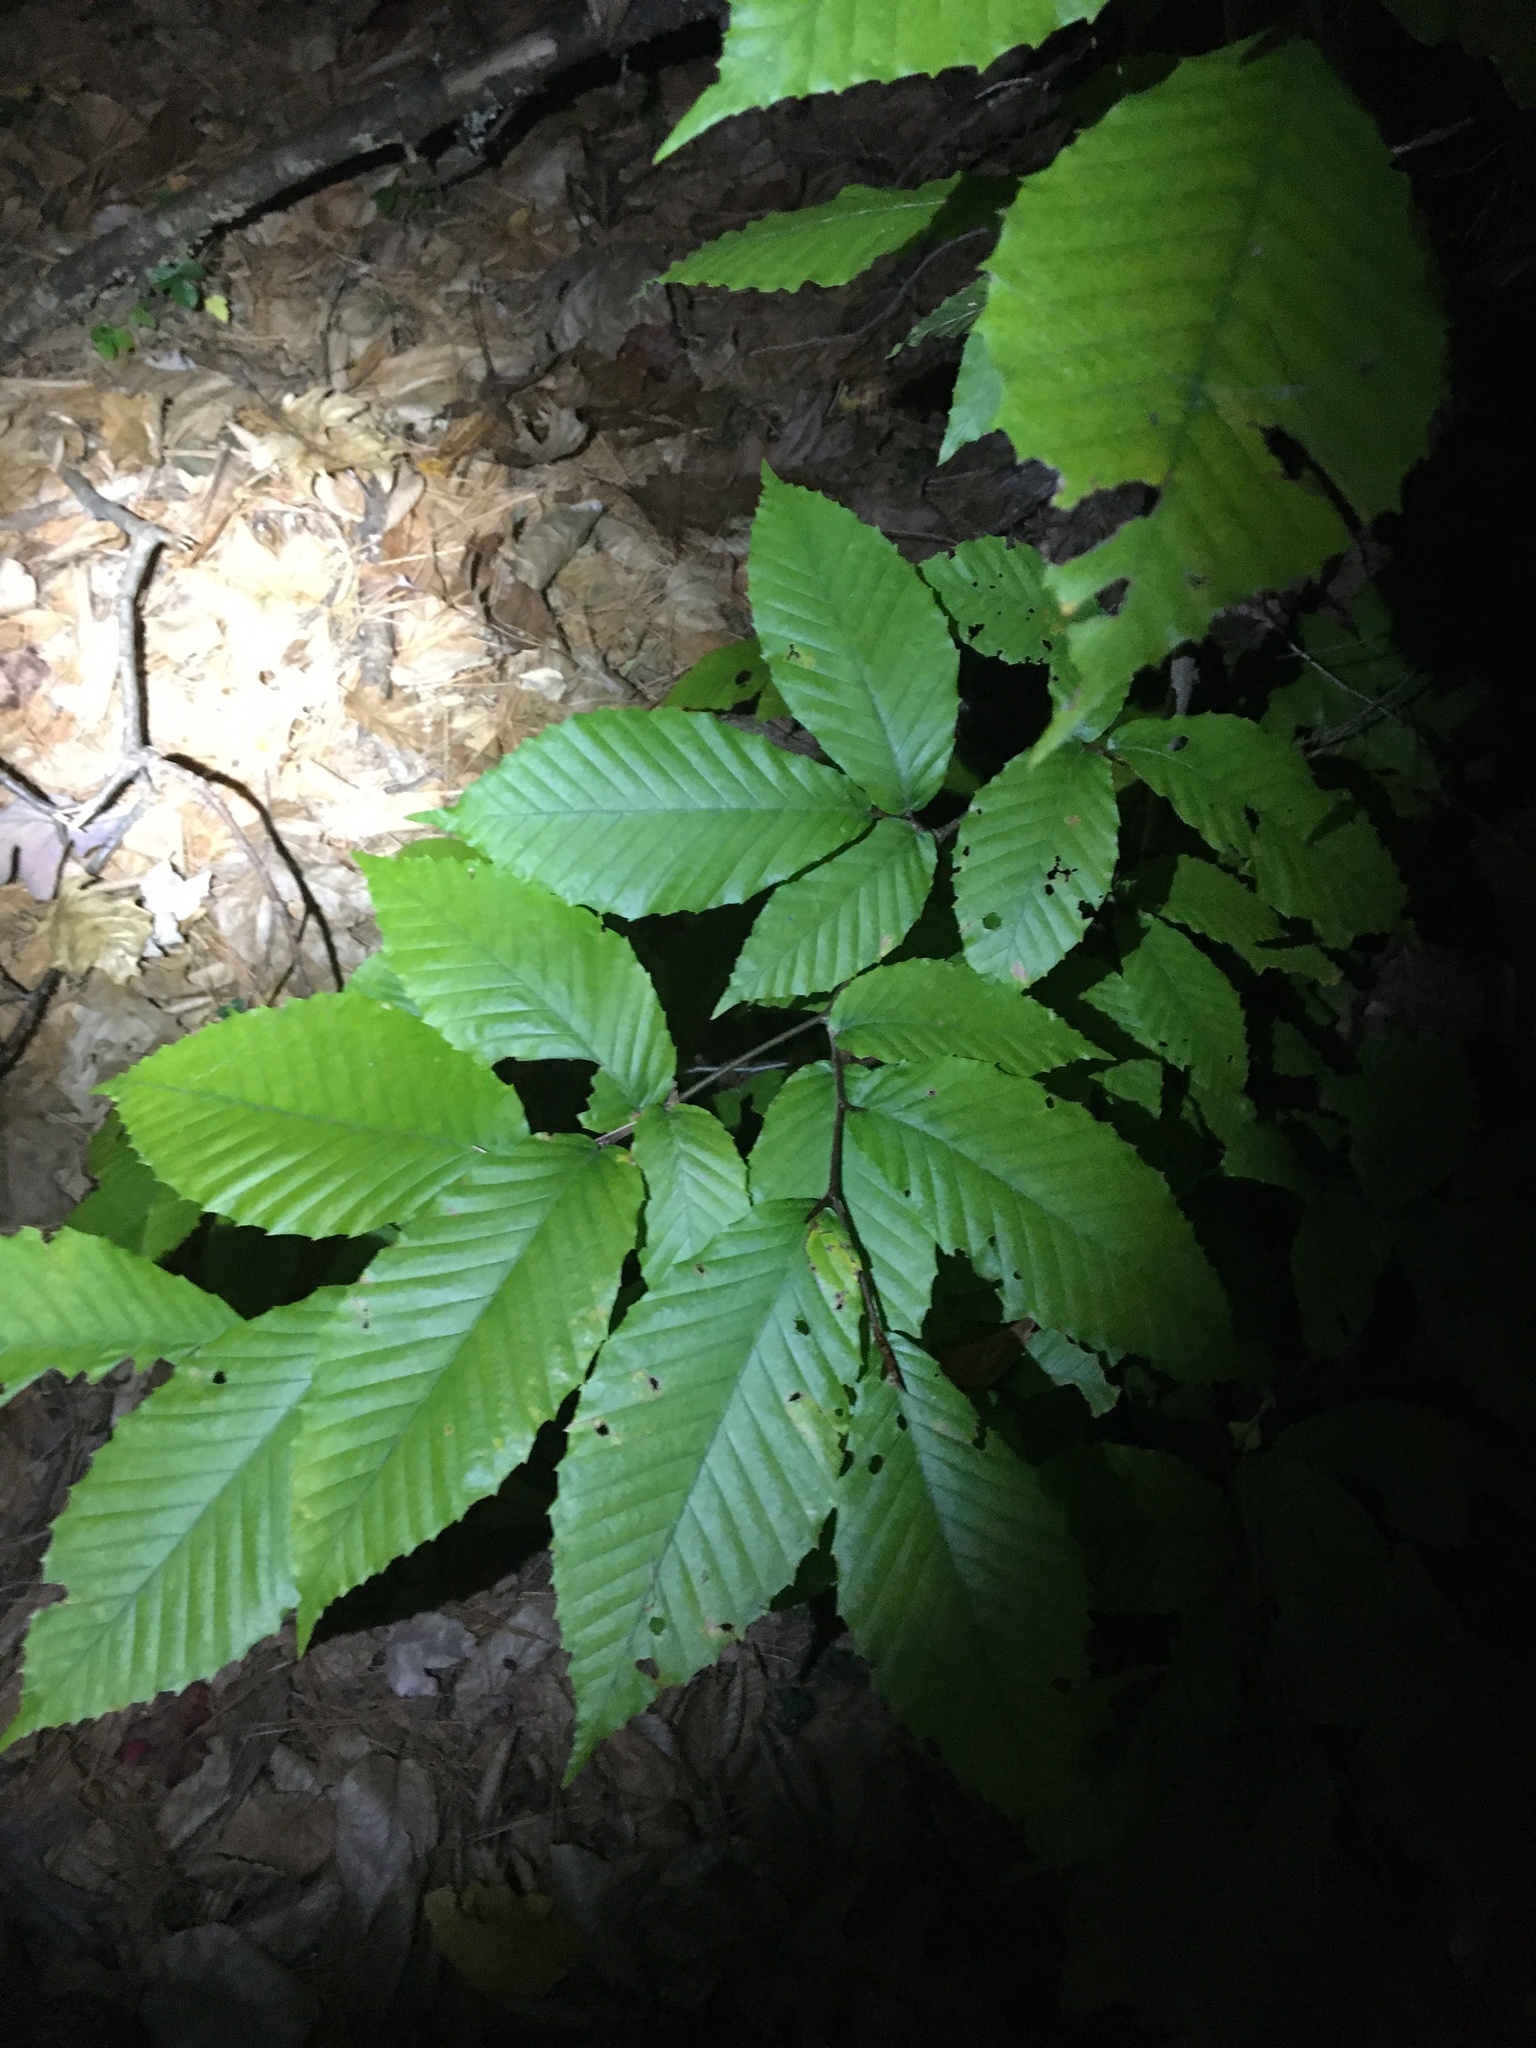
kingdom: Plantae
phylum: Tracheophyta
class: Magnoliopsida
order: Fagales
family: Fagaceae
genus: Fagus
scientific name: Fagus grandifolia
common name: American beech
